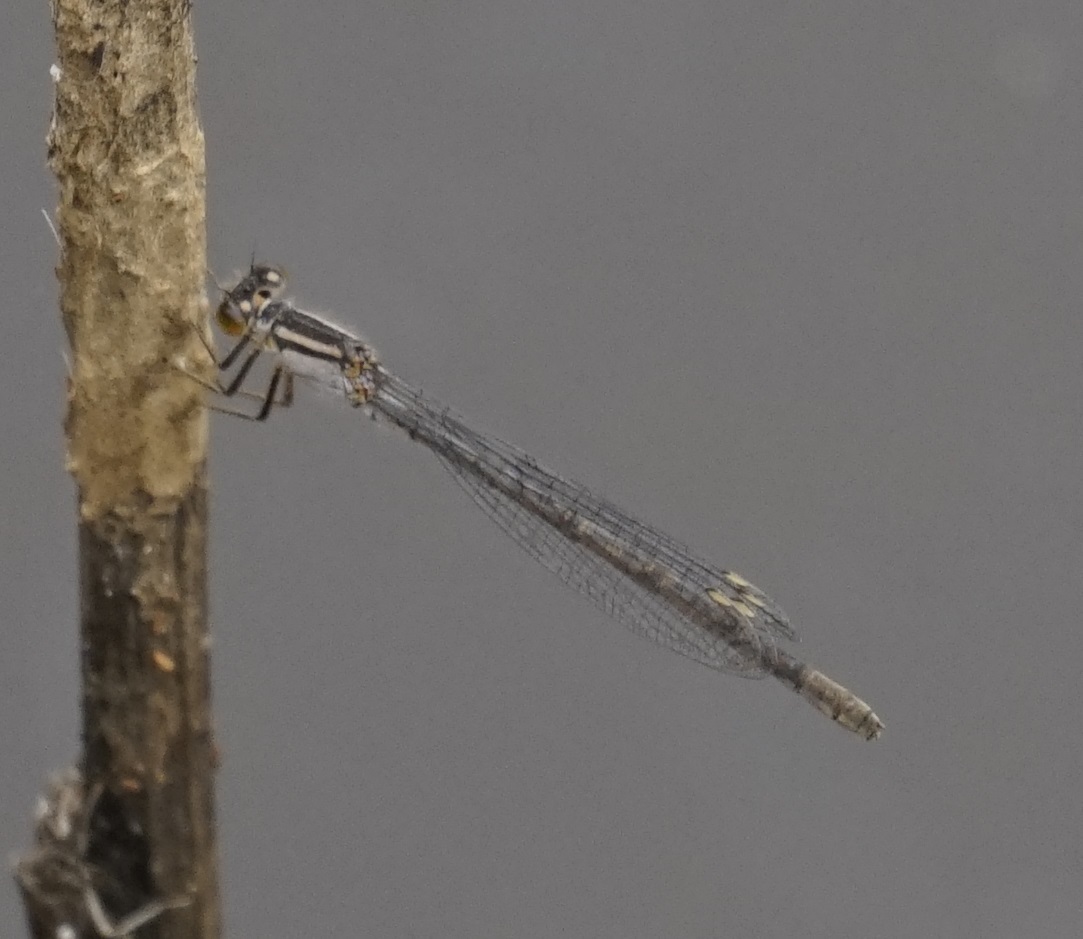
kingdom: Animalia
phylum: Arthropoda
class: Insecta
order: Odonata
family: Coenagrionidae
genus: Ischnura
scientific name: Ischnura heterosticta
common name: Common bluetail
